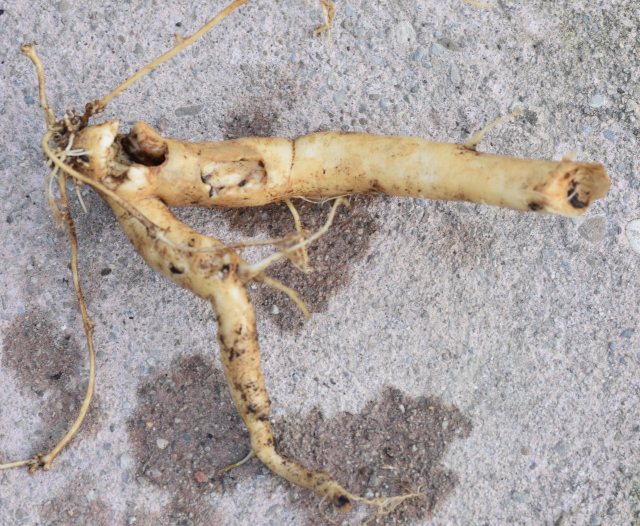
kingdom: Animalia
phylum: Arthropoda
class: Insecta
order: Lepidoptera
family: Hepialidae
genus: Korscheltellus
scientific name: Korscheltellus lupulina
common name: Common swift
